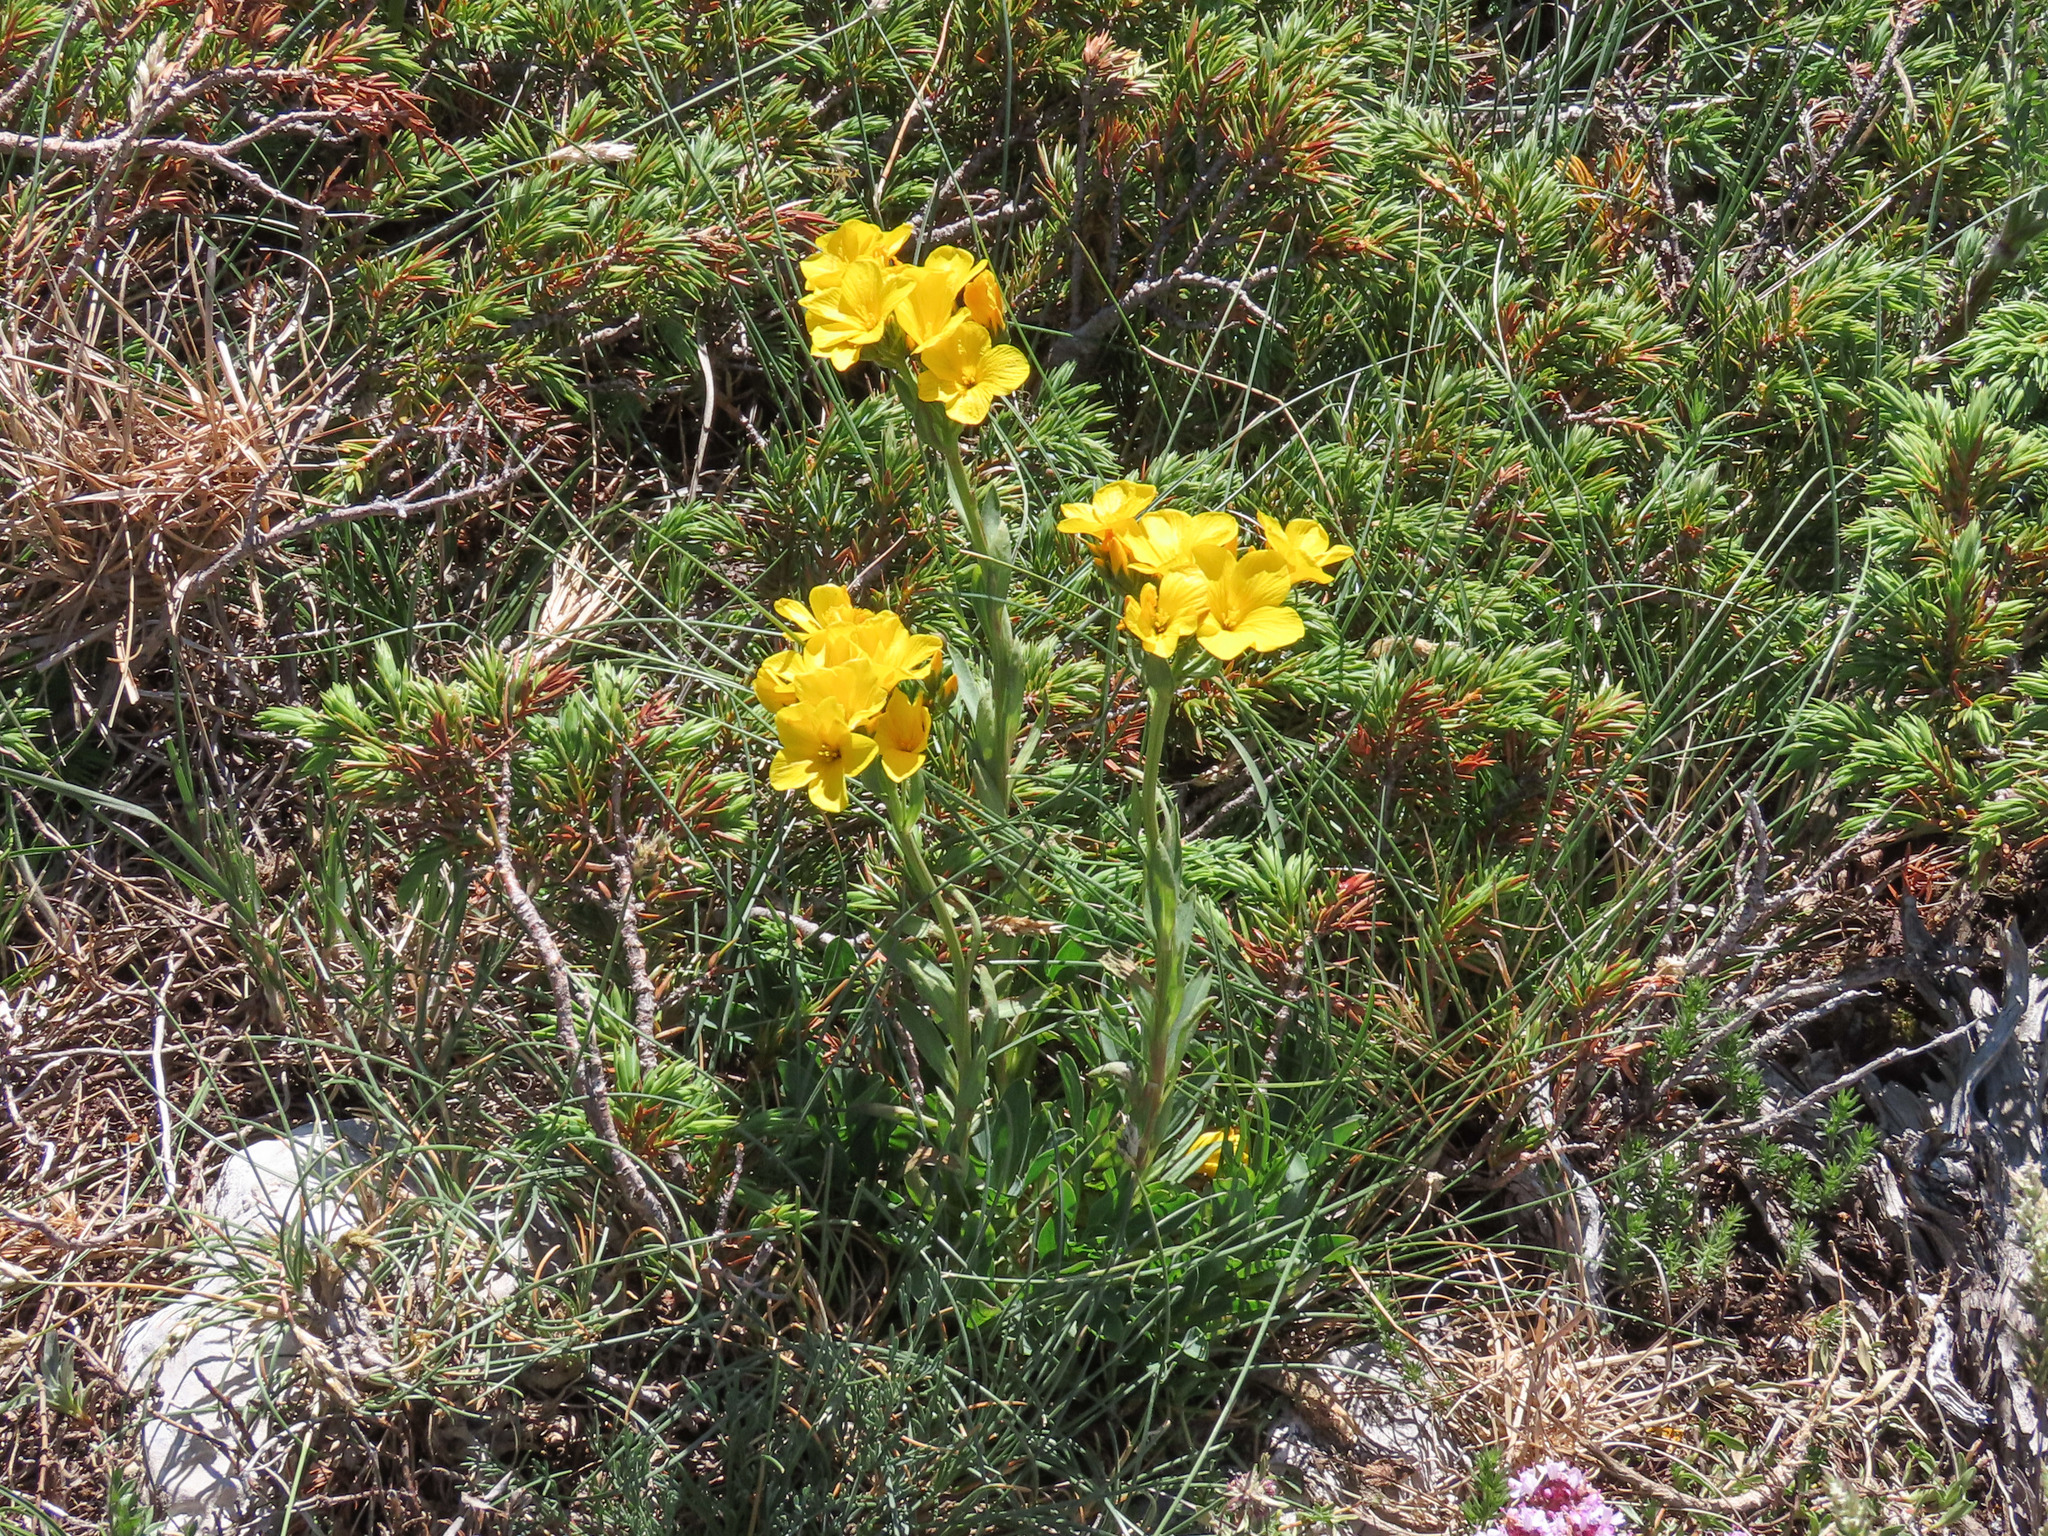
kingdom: Plantae
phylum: Tracheophyta
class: Magnoliopsida
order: Malpighiales
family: Linaceae
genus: Linum
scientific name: Linum capitatum
